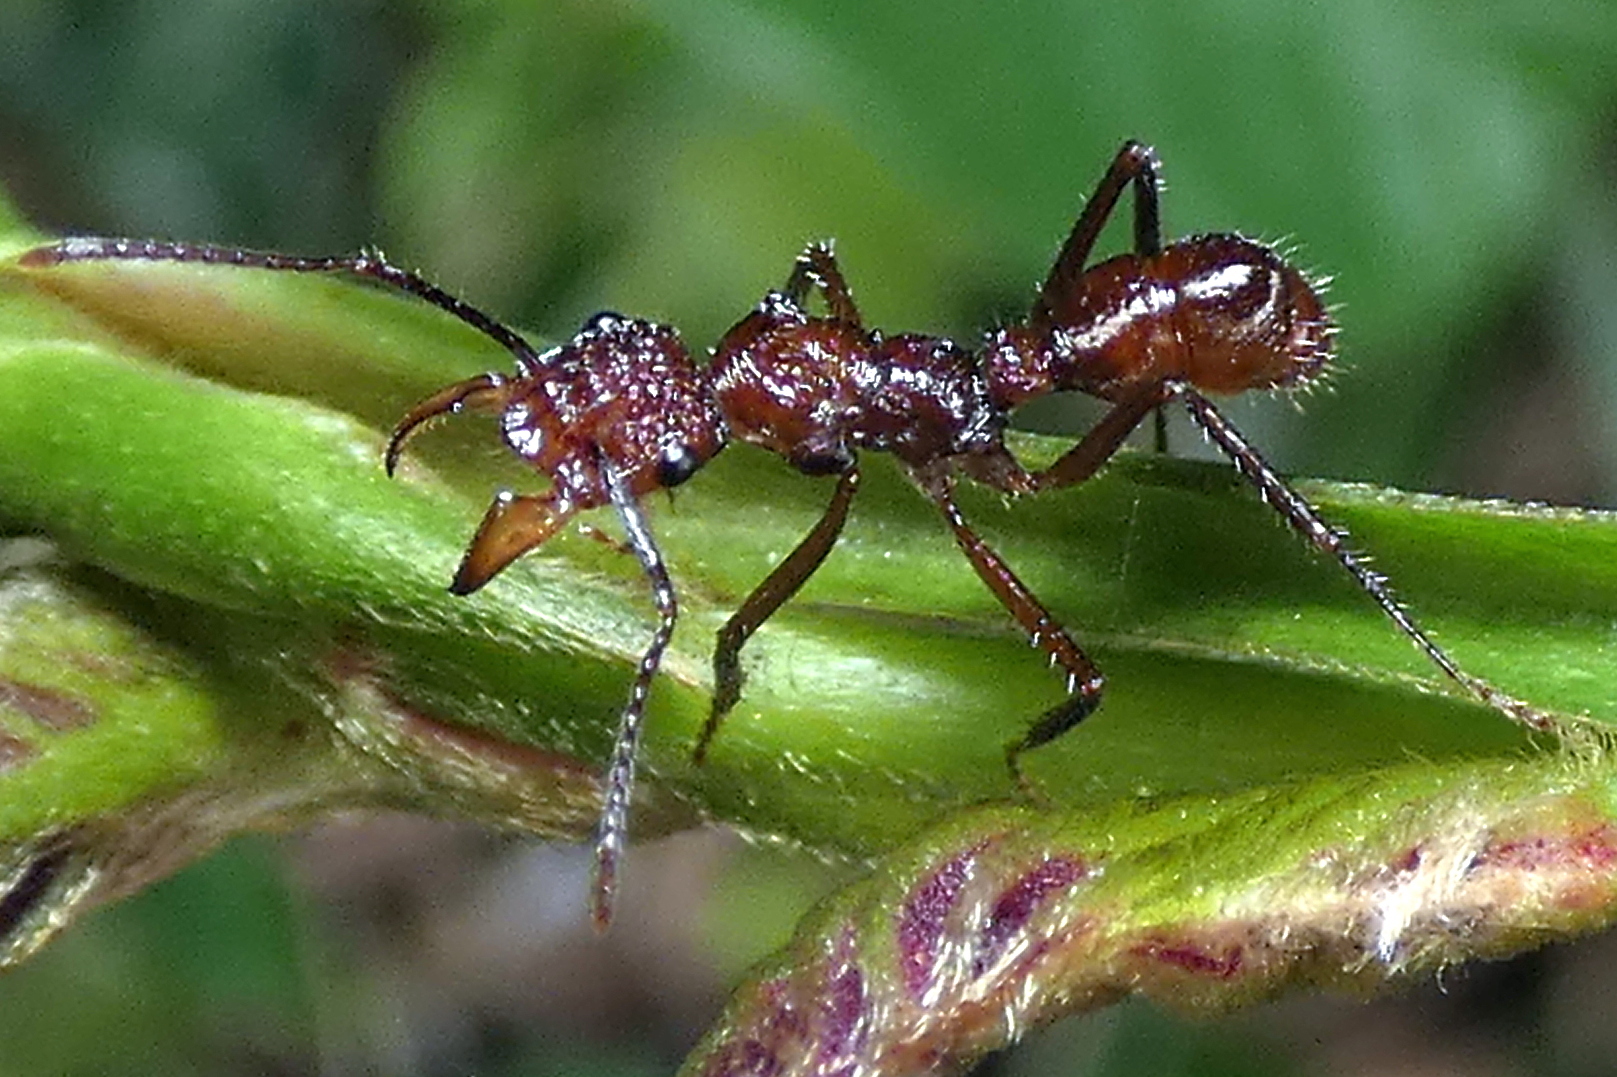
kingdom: Animalia
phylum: Arthropoda
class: Insecta
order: Hymenoptera
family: Formicidae
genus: Ectatomma
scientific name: Ectatomma tuberculatum
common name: Ant
